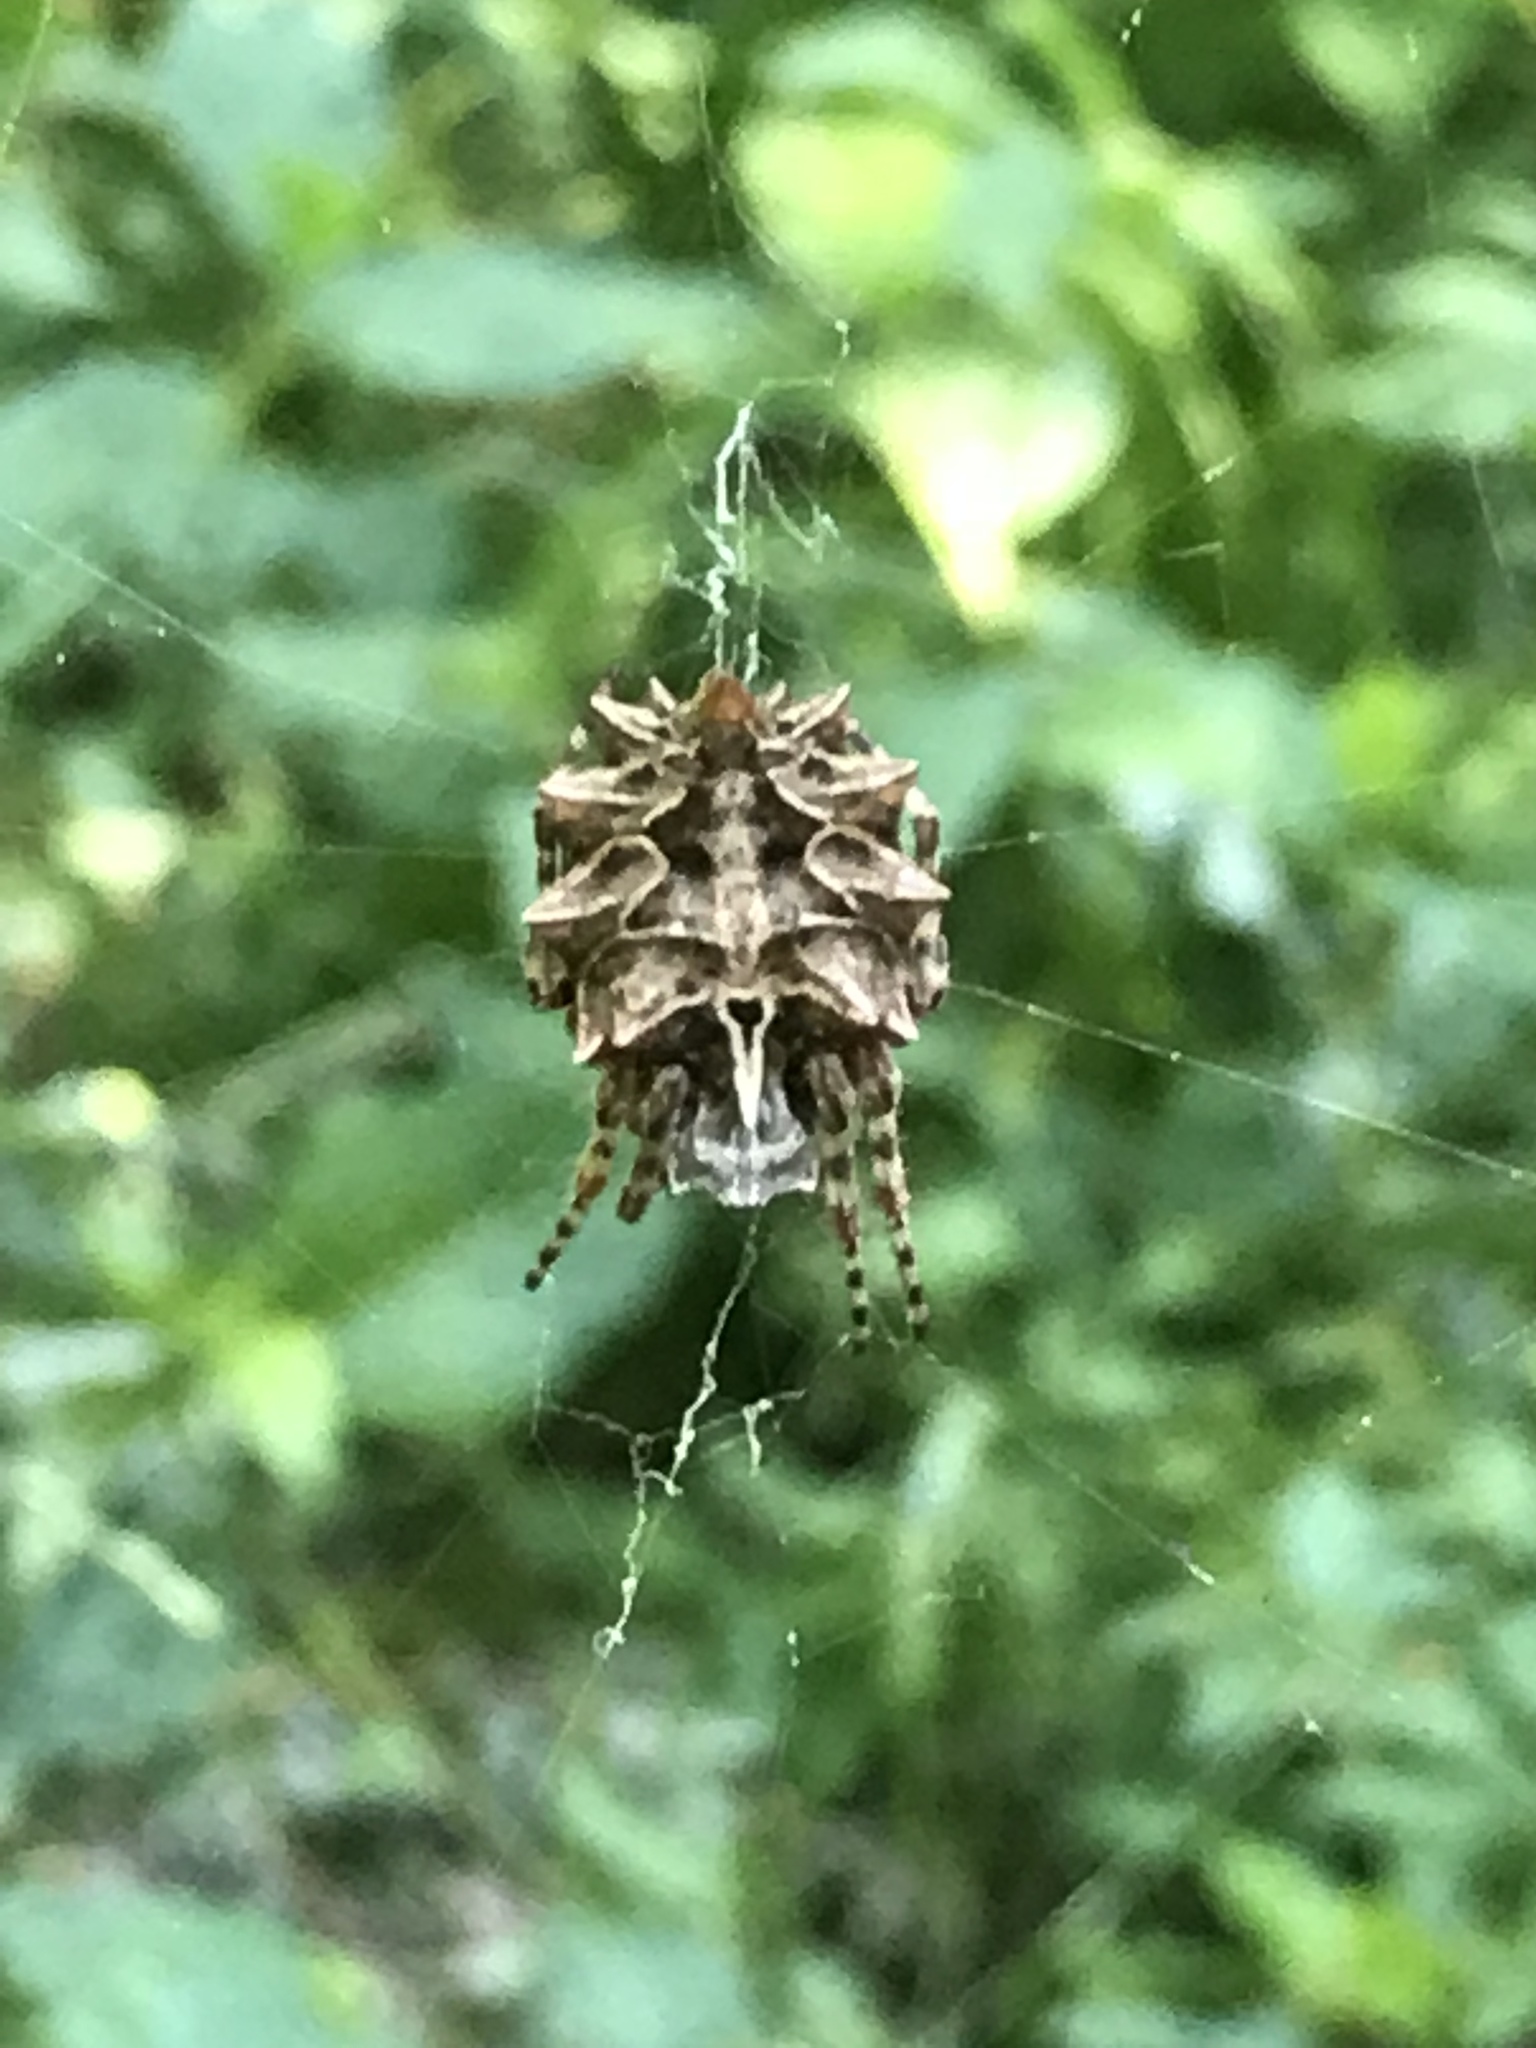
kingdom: Animalia
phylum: Arthropoda
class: Arachnida
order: Araneae
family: Araneidae
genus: Acanthepeira
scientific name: Acanthepeira stellata
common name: Starbellied orbweaver
